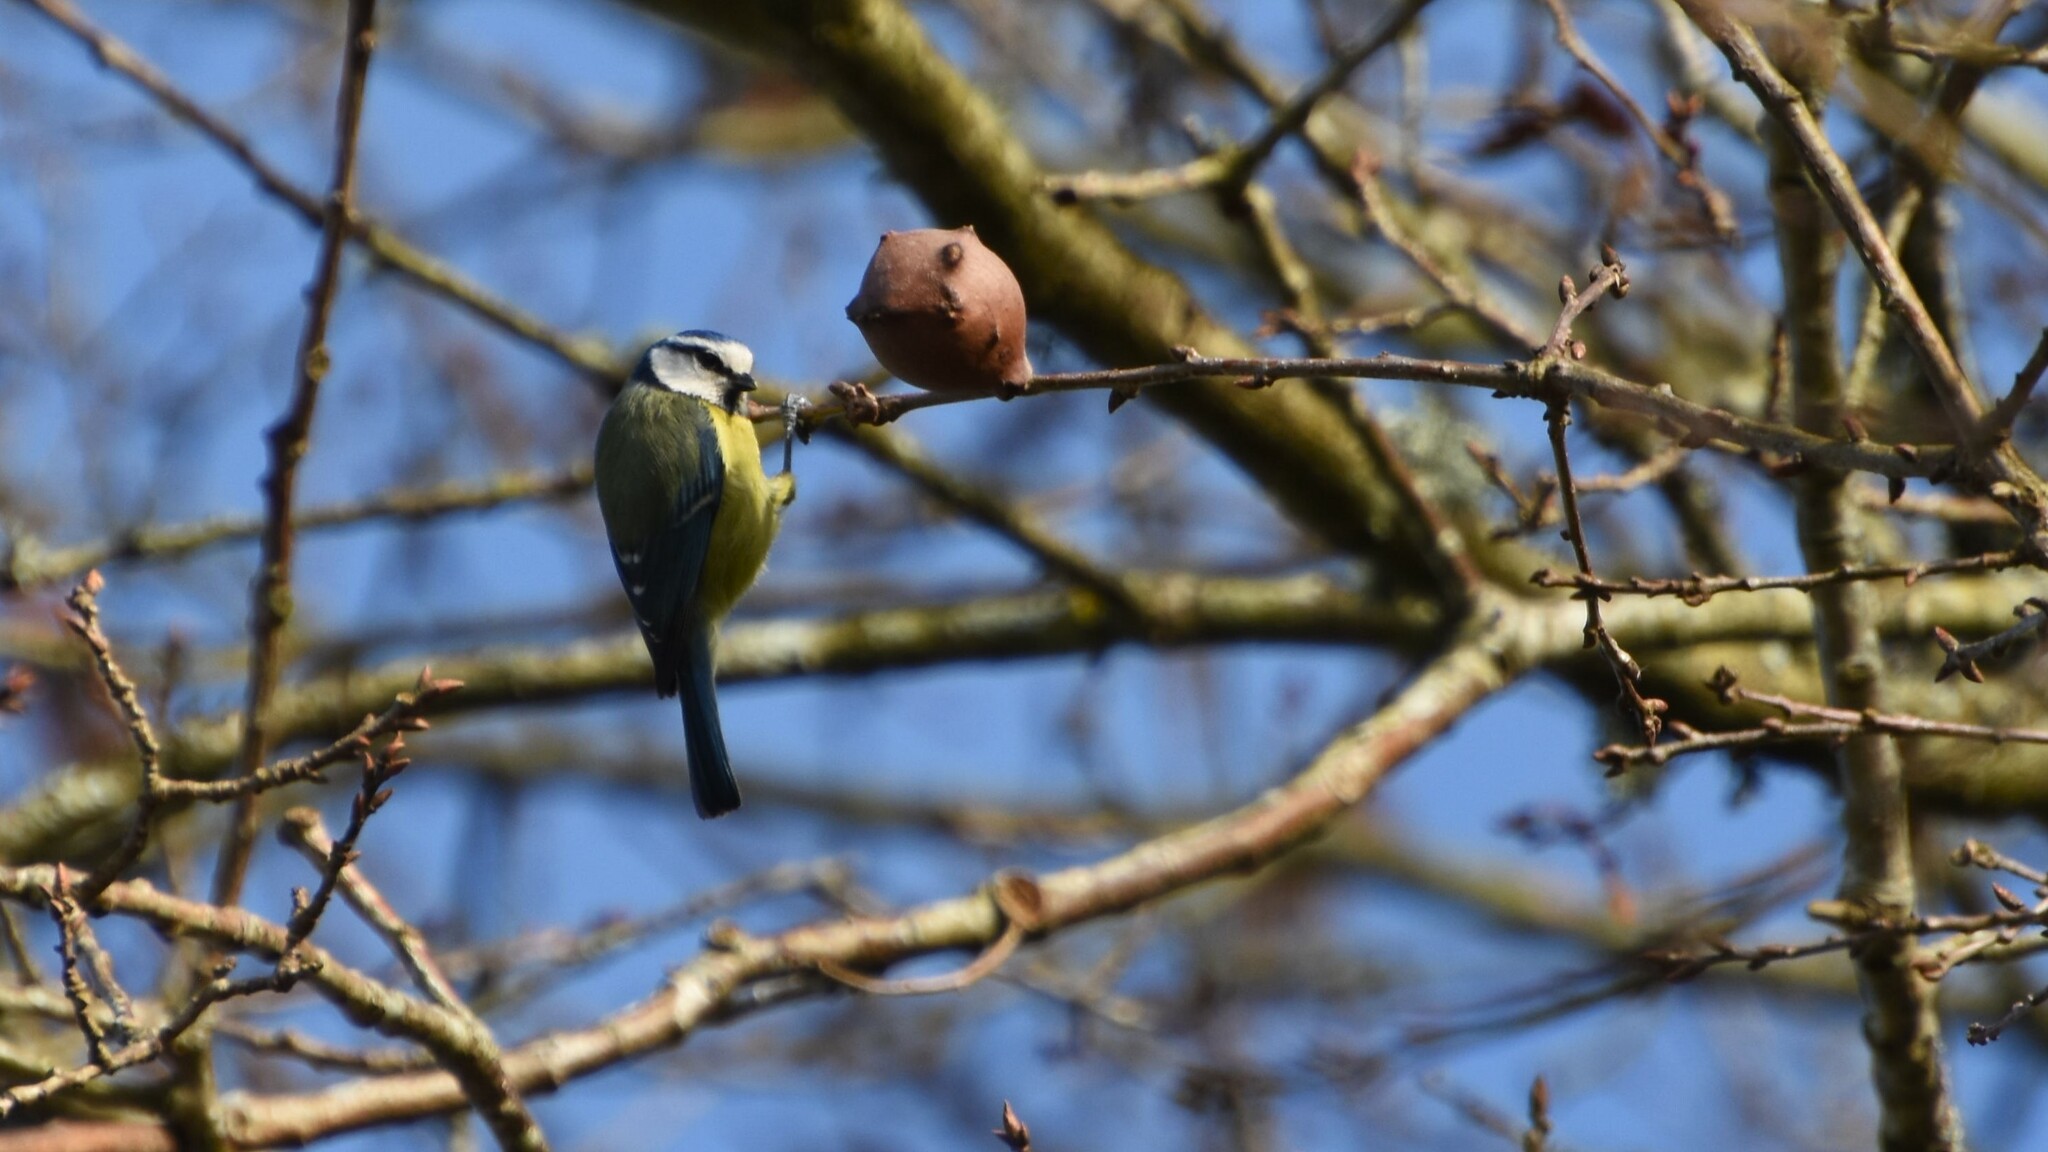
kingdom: Animalia
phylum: Chordata
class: Aves
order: Passeriformes
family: Paridae
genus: Cyanistes
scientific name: Cyanistes caeruleus
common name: Eurasian blue tit
